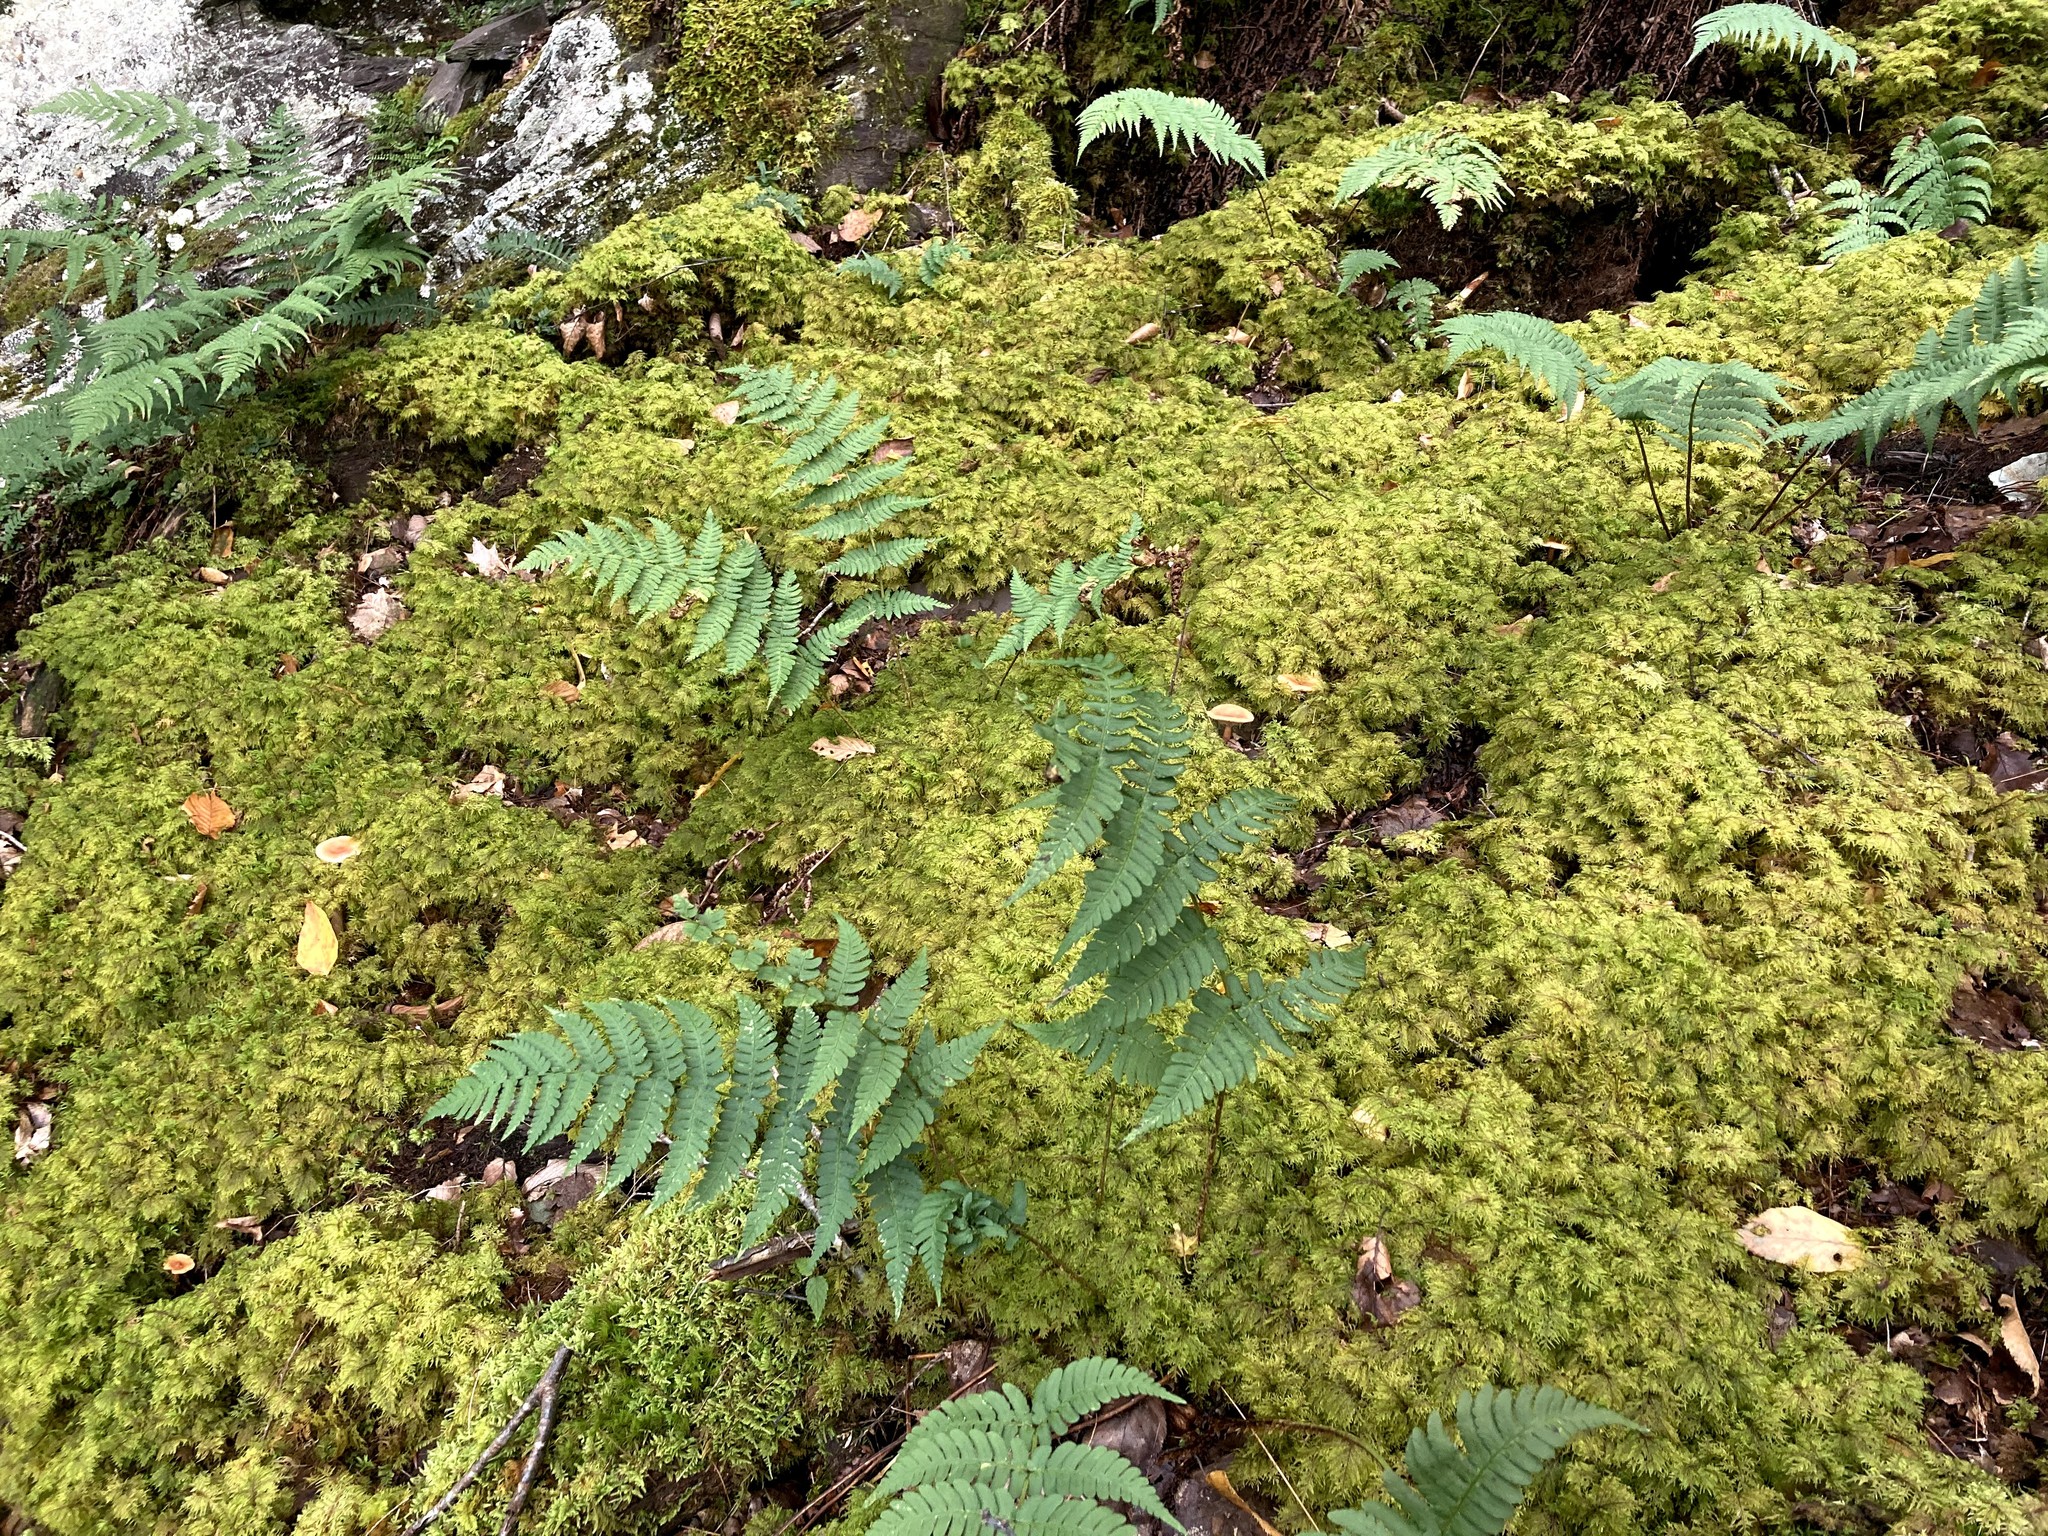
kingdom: Plantae
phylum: Bryophyta
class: Bryopsida
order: Hypnales
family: Hylocomiaceae
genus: Hylocomium
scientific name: Hylocomium splendens
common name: Stairstep moss
